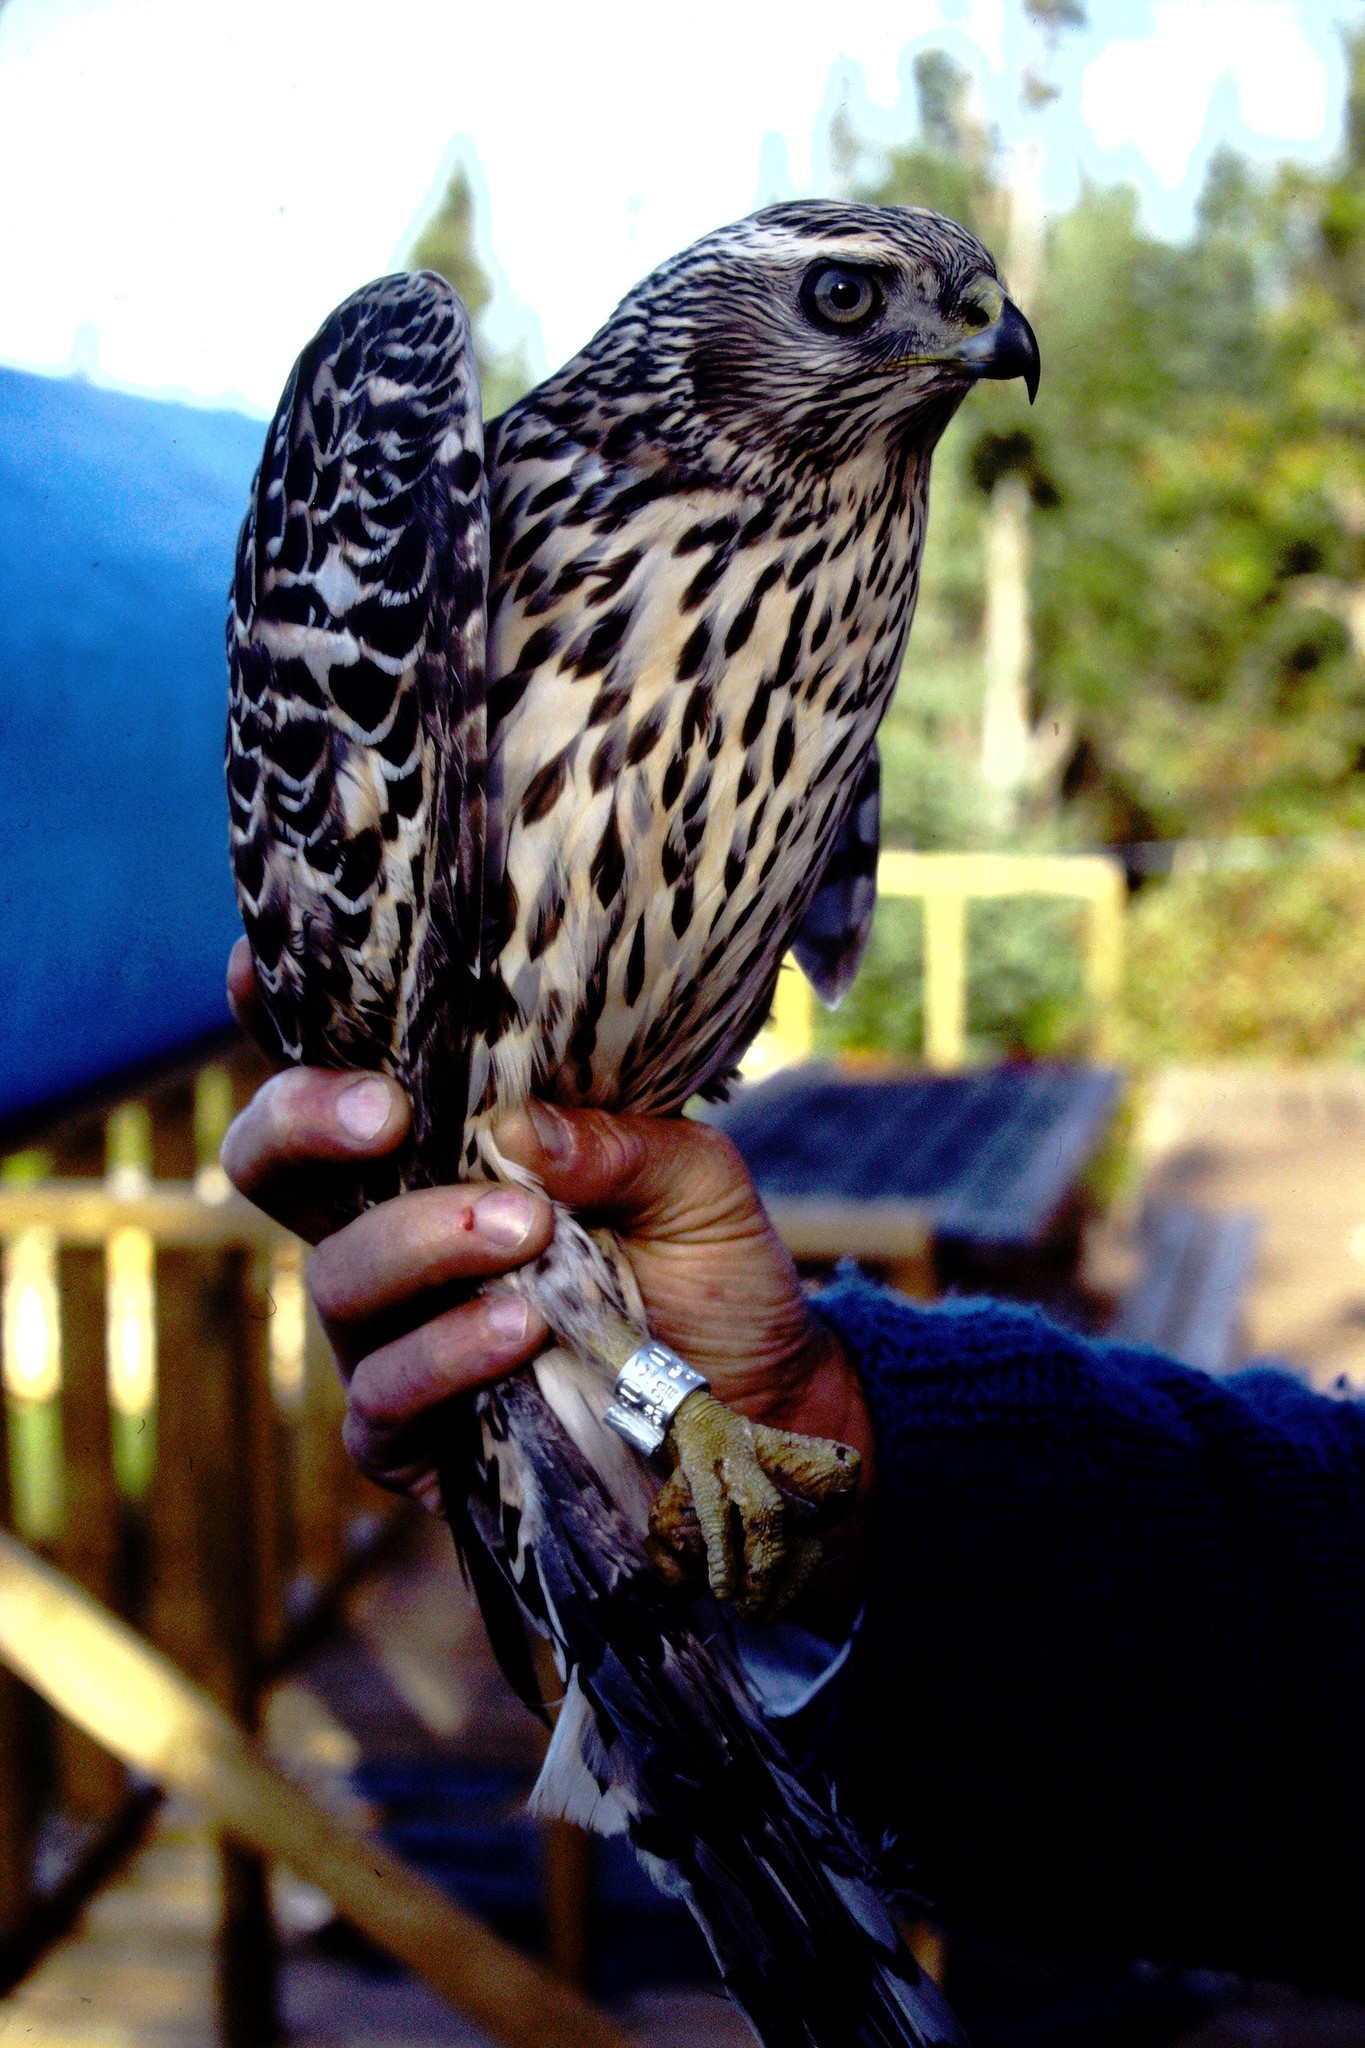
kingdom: Animalia
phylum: Chordata
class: Aves
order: Accipitriformes
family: Accipitridae
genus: Accipiter
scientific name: Accipiter gentilis
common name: Northern goshawk
